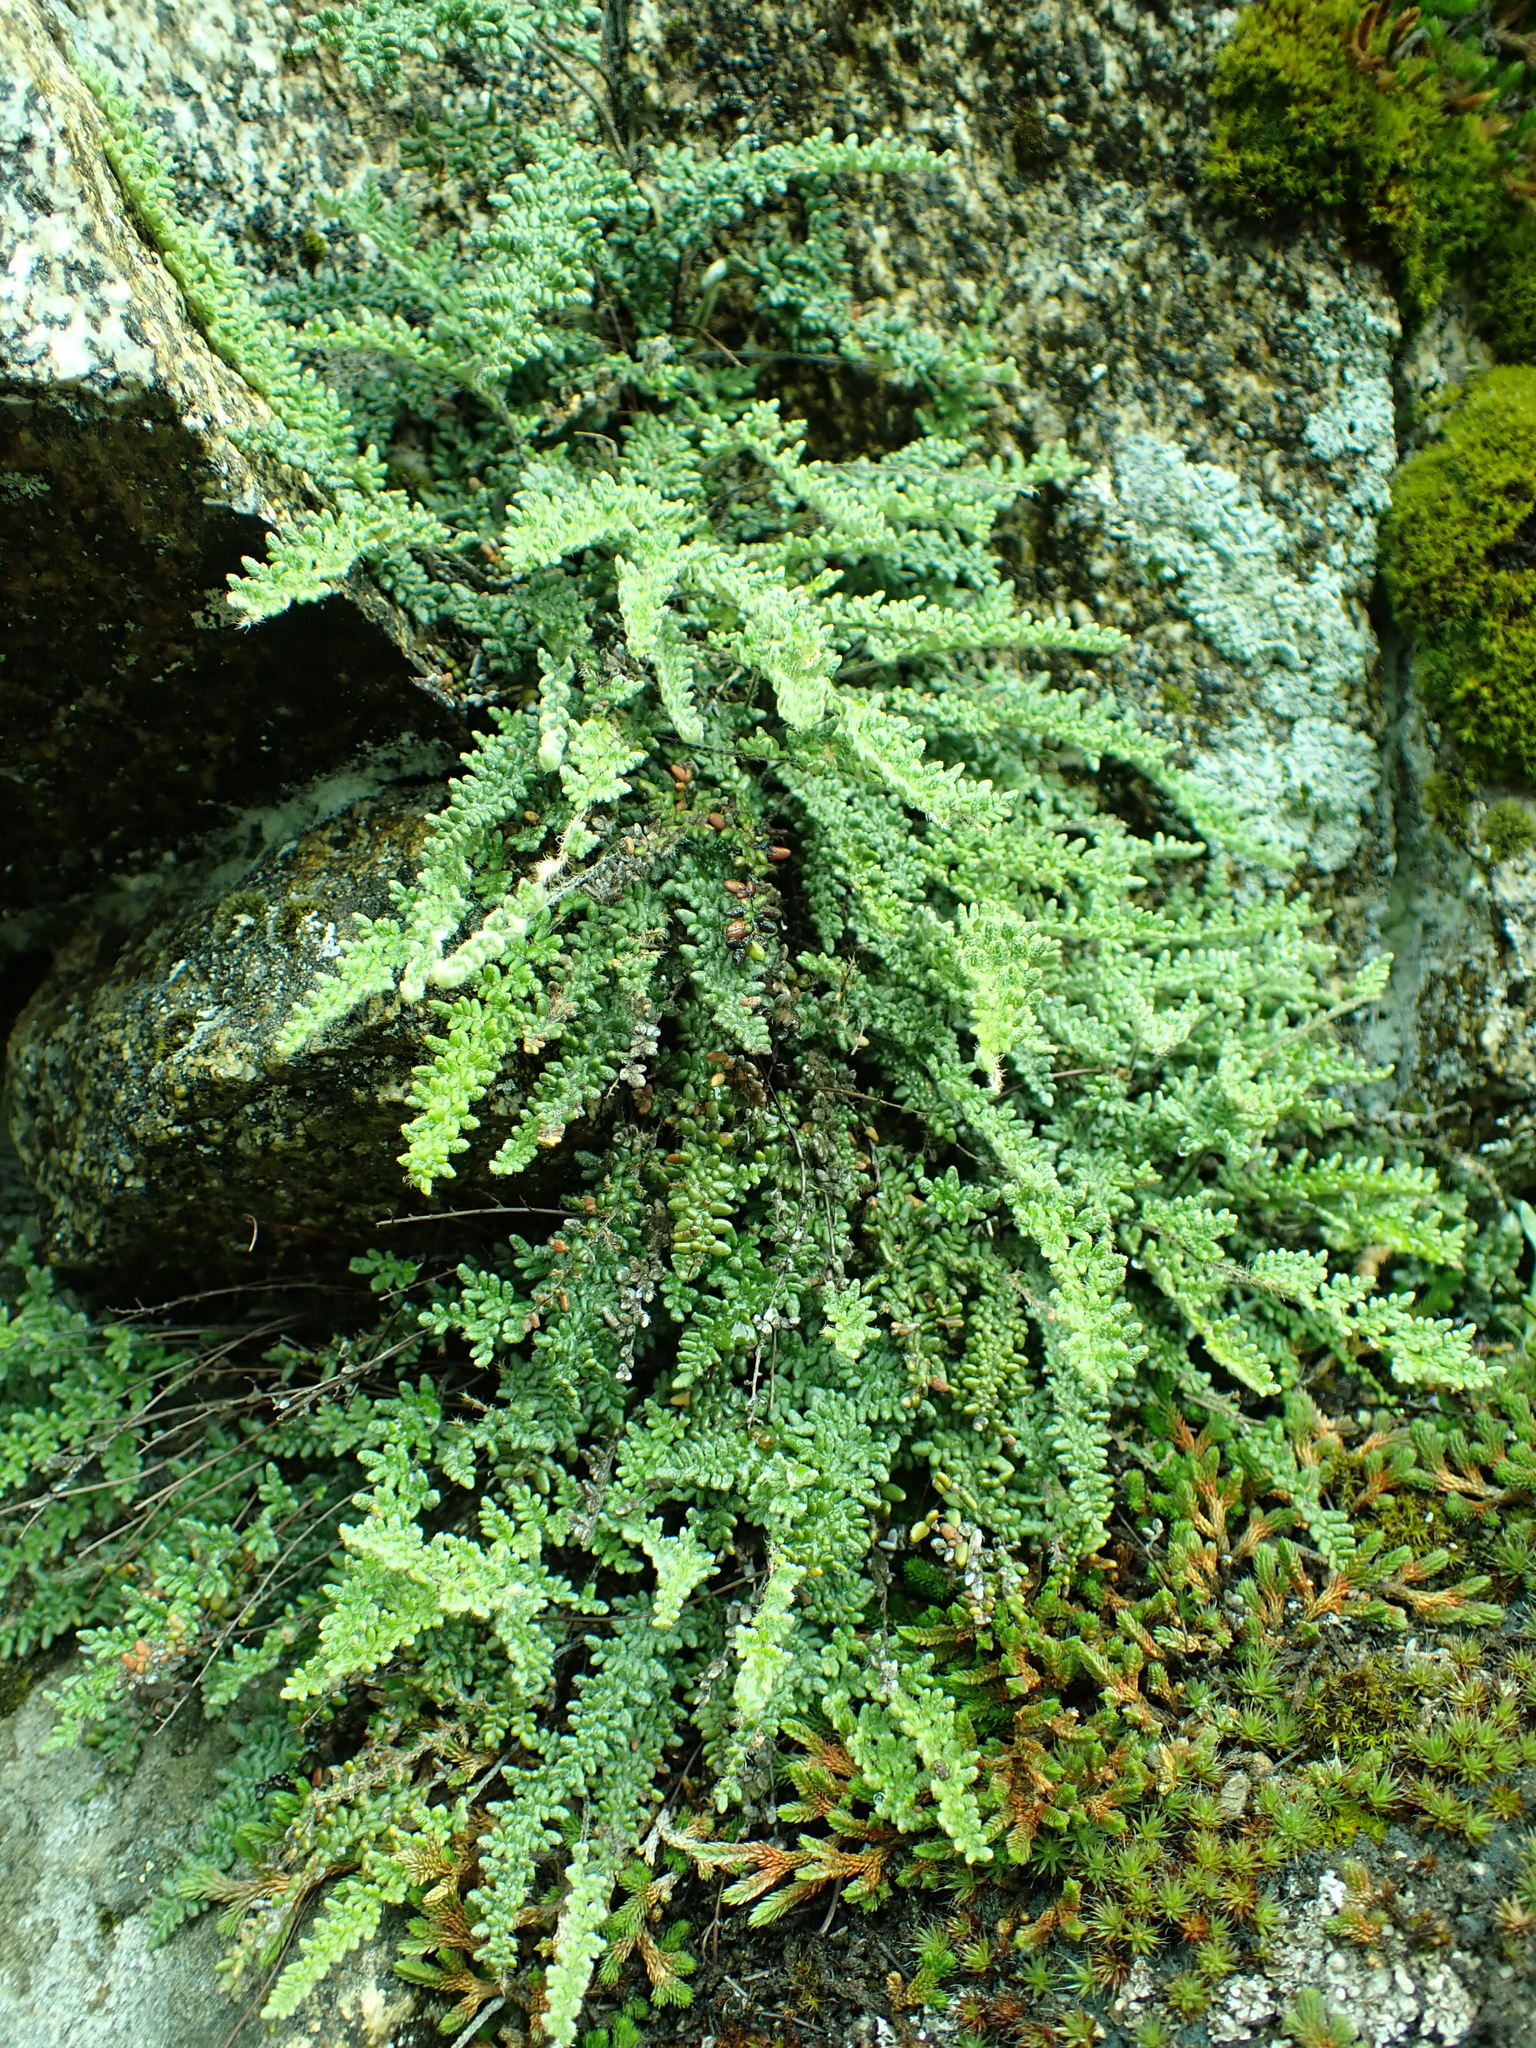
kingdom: Plantae
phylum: Tracheophyta
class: Polypodiopsida
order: Polypodiales
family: Pteridaceae
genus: Myriopteris
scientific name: Myriopteris gracillima
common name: Lace fern
